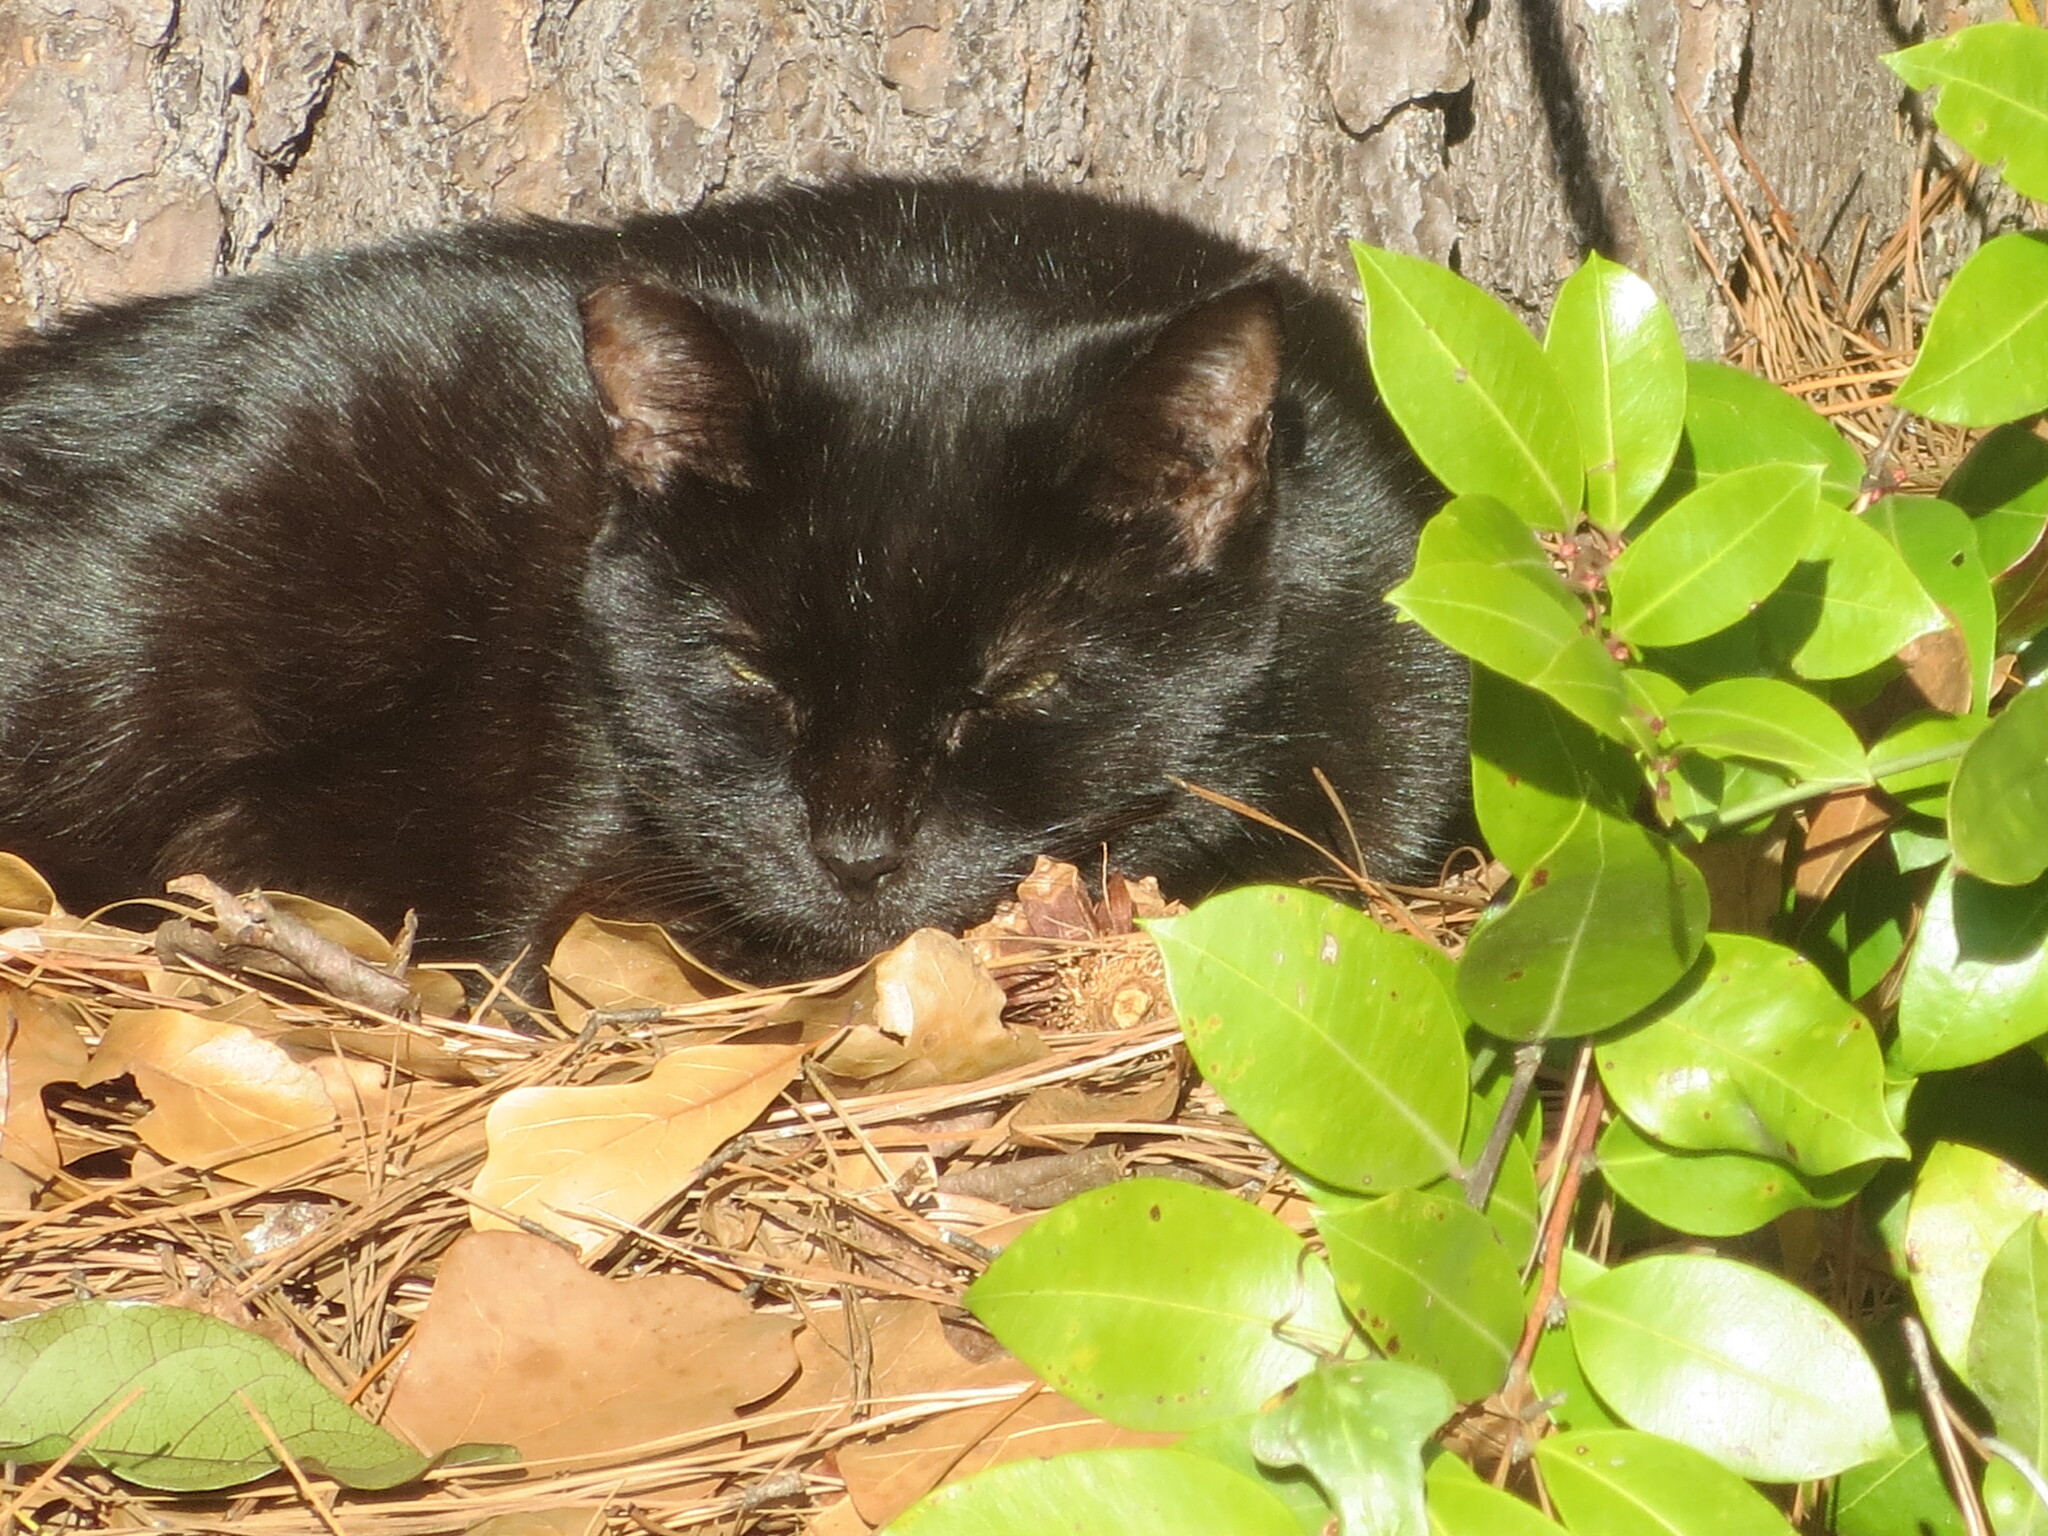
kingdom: Animalia
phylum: Chordata
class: Mammalia
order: Carnivora
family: Felidae
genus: Felis
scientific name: Felis catus
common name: Domestic cat
